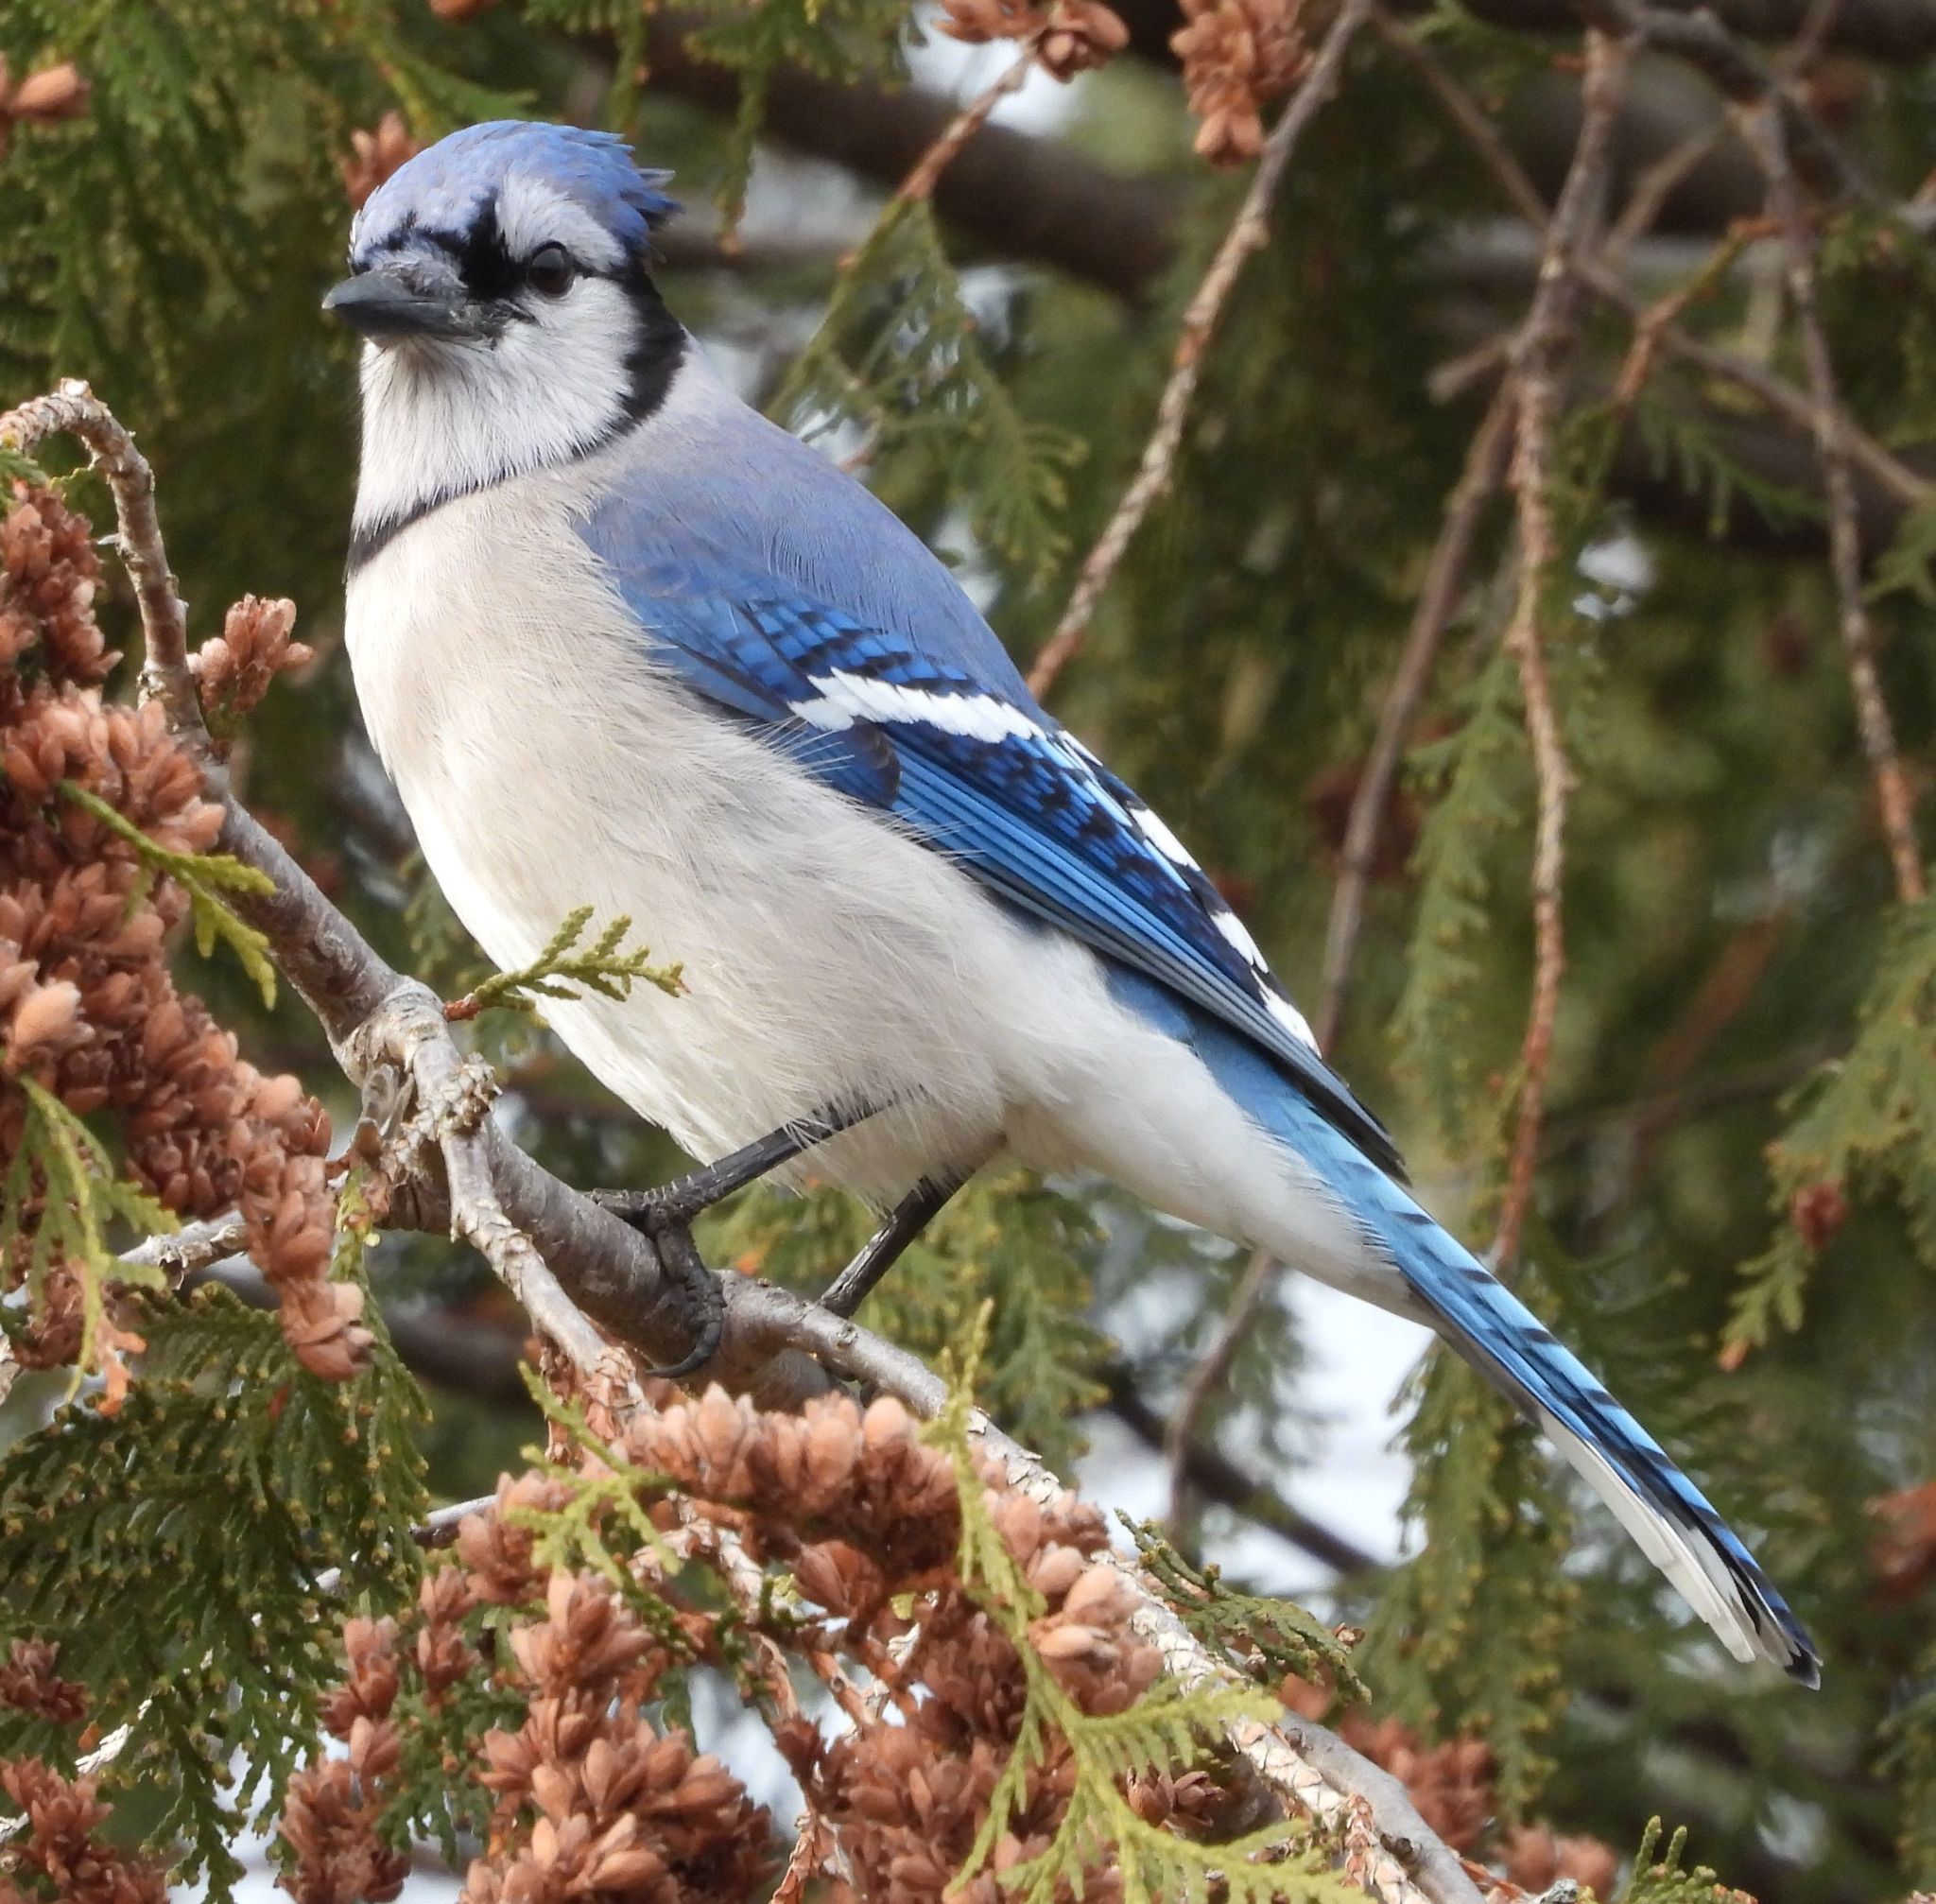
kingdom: Animalia
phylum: Chordata
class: Aves
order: Passeriformes
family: Corvidae
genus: Cyanocitta
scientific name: Cyanocitta cristata
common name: Blue jay
